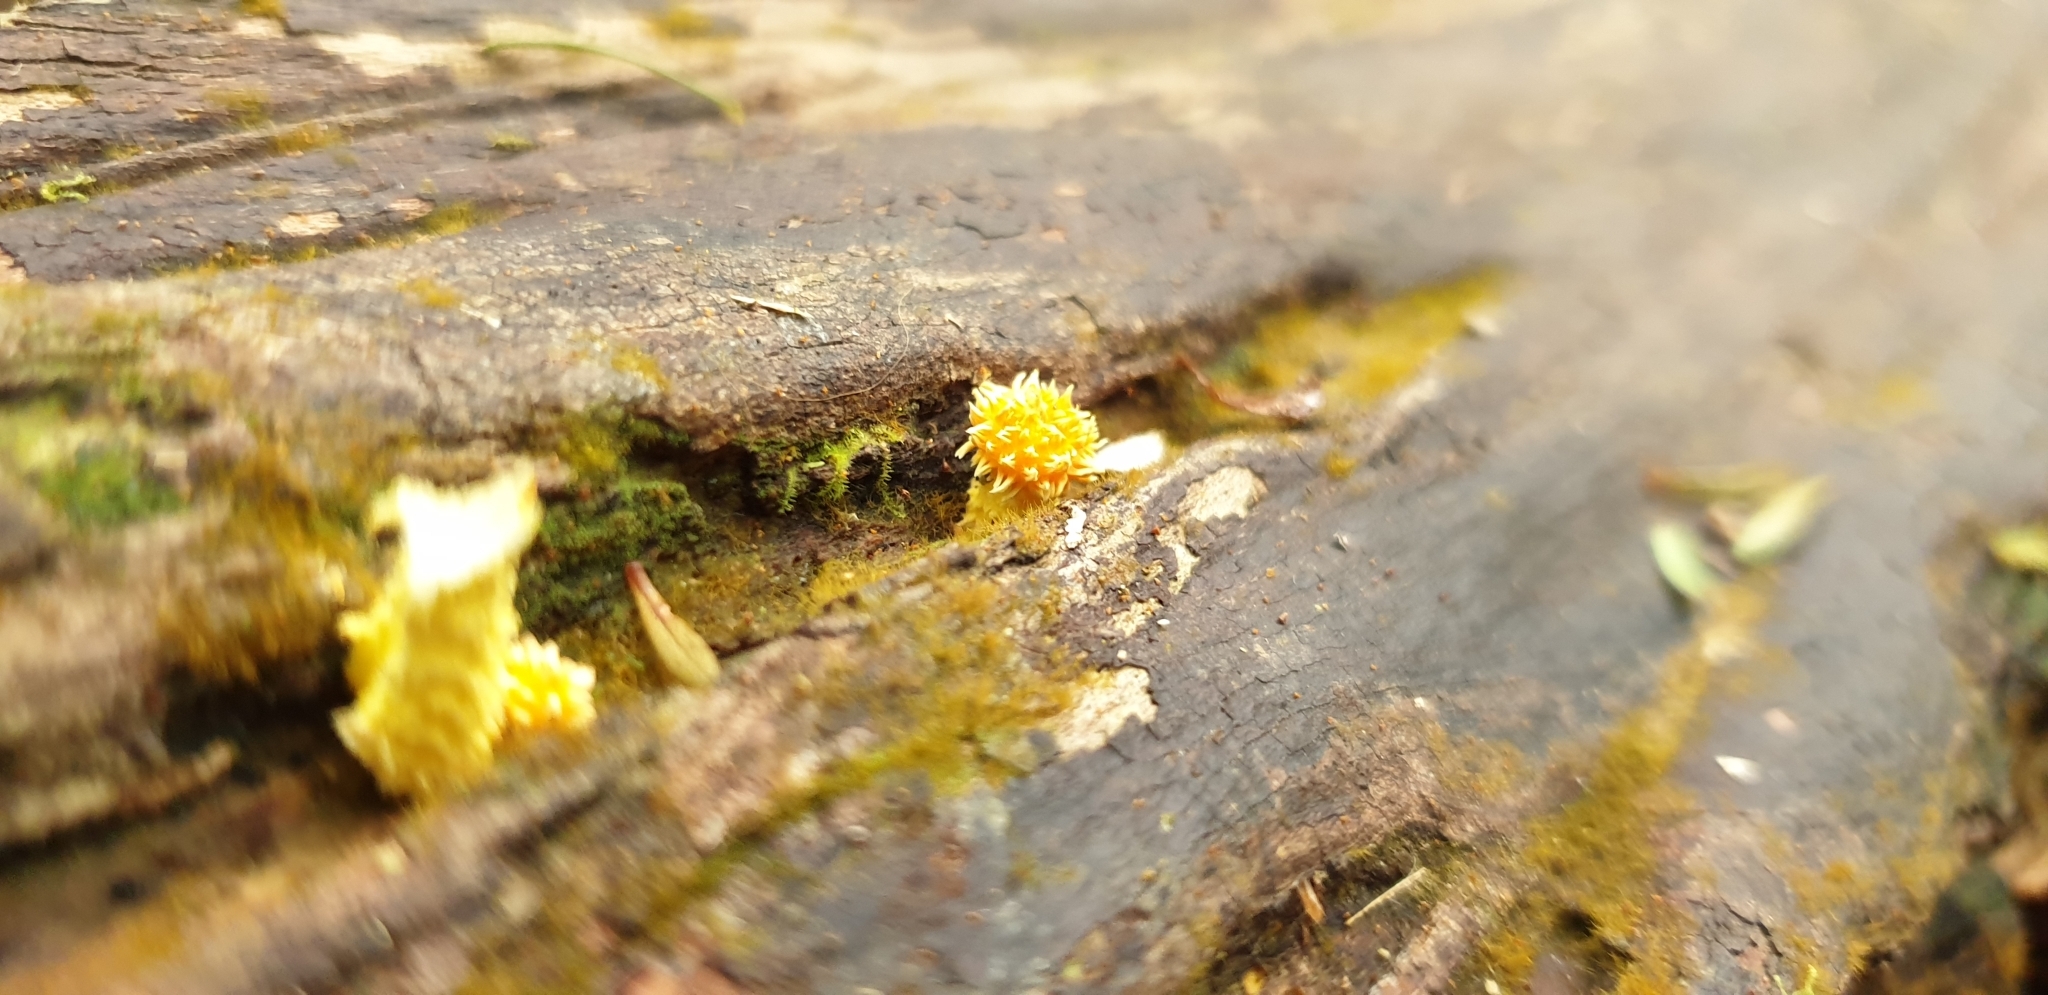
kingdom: Fungi
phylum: Basidiomycota
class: Agaricomycetes
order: Agaricales
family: Physalacriaceae
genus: Cyptotrama
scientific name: Cyptotrama asprata
